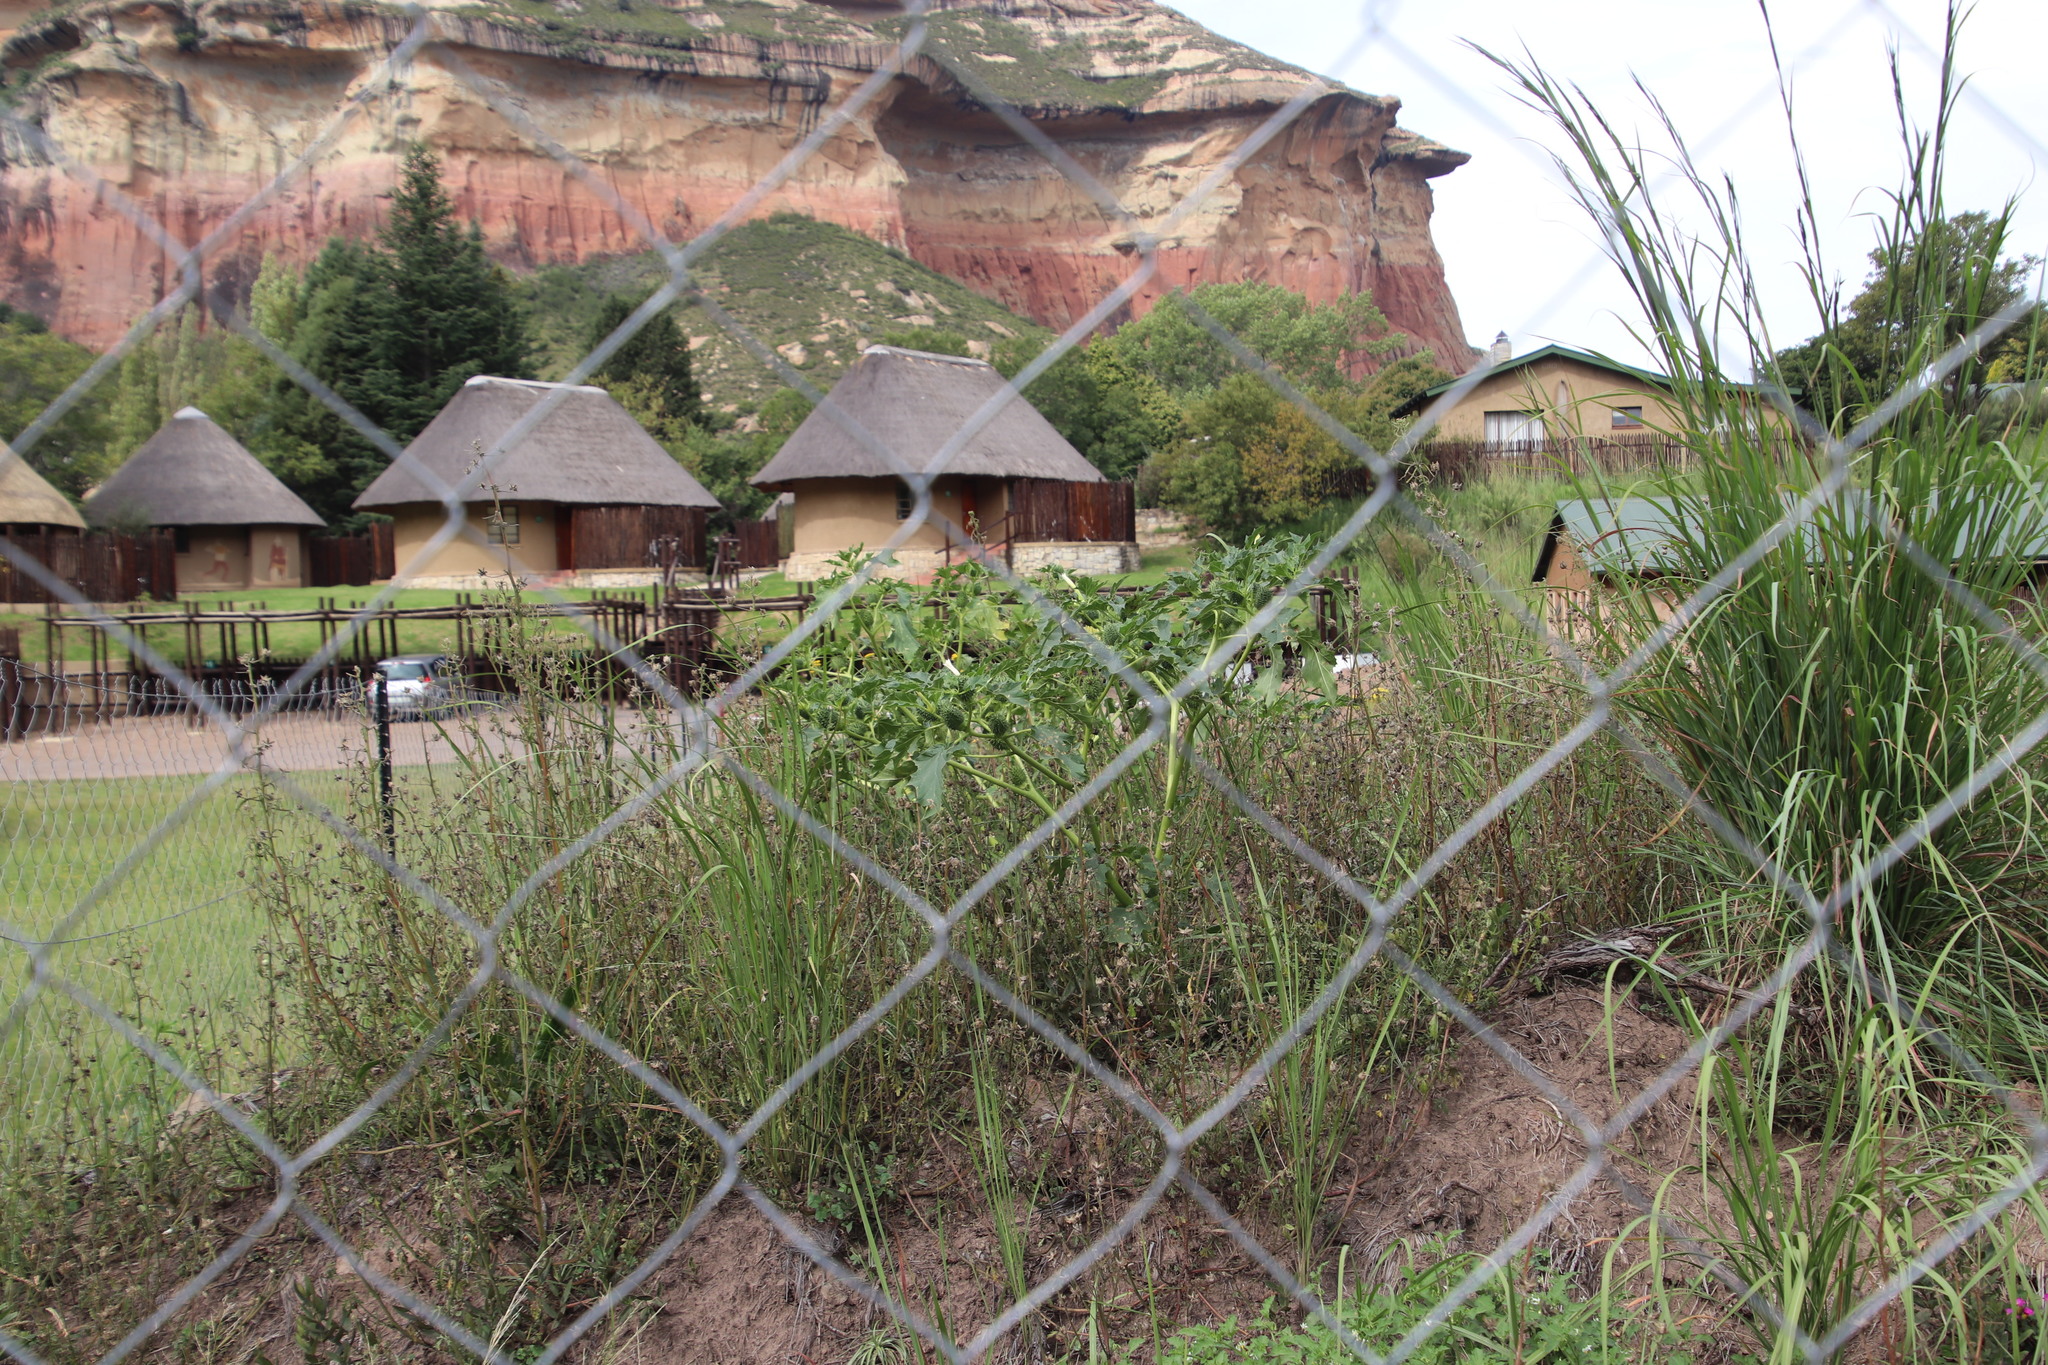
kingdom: Plantae
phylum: Tracheophyta
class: Magnoliopsida
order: Solanales
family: Solanaceae
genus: Datura
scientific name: Datura stramonium
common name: Thorn-apple
